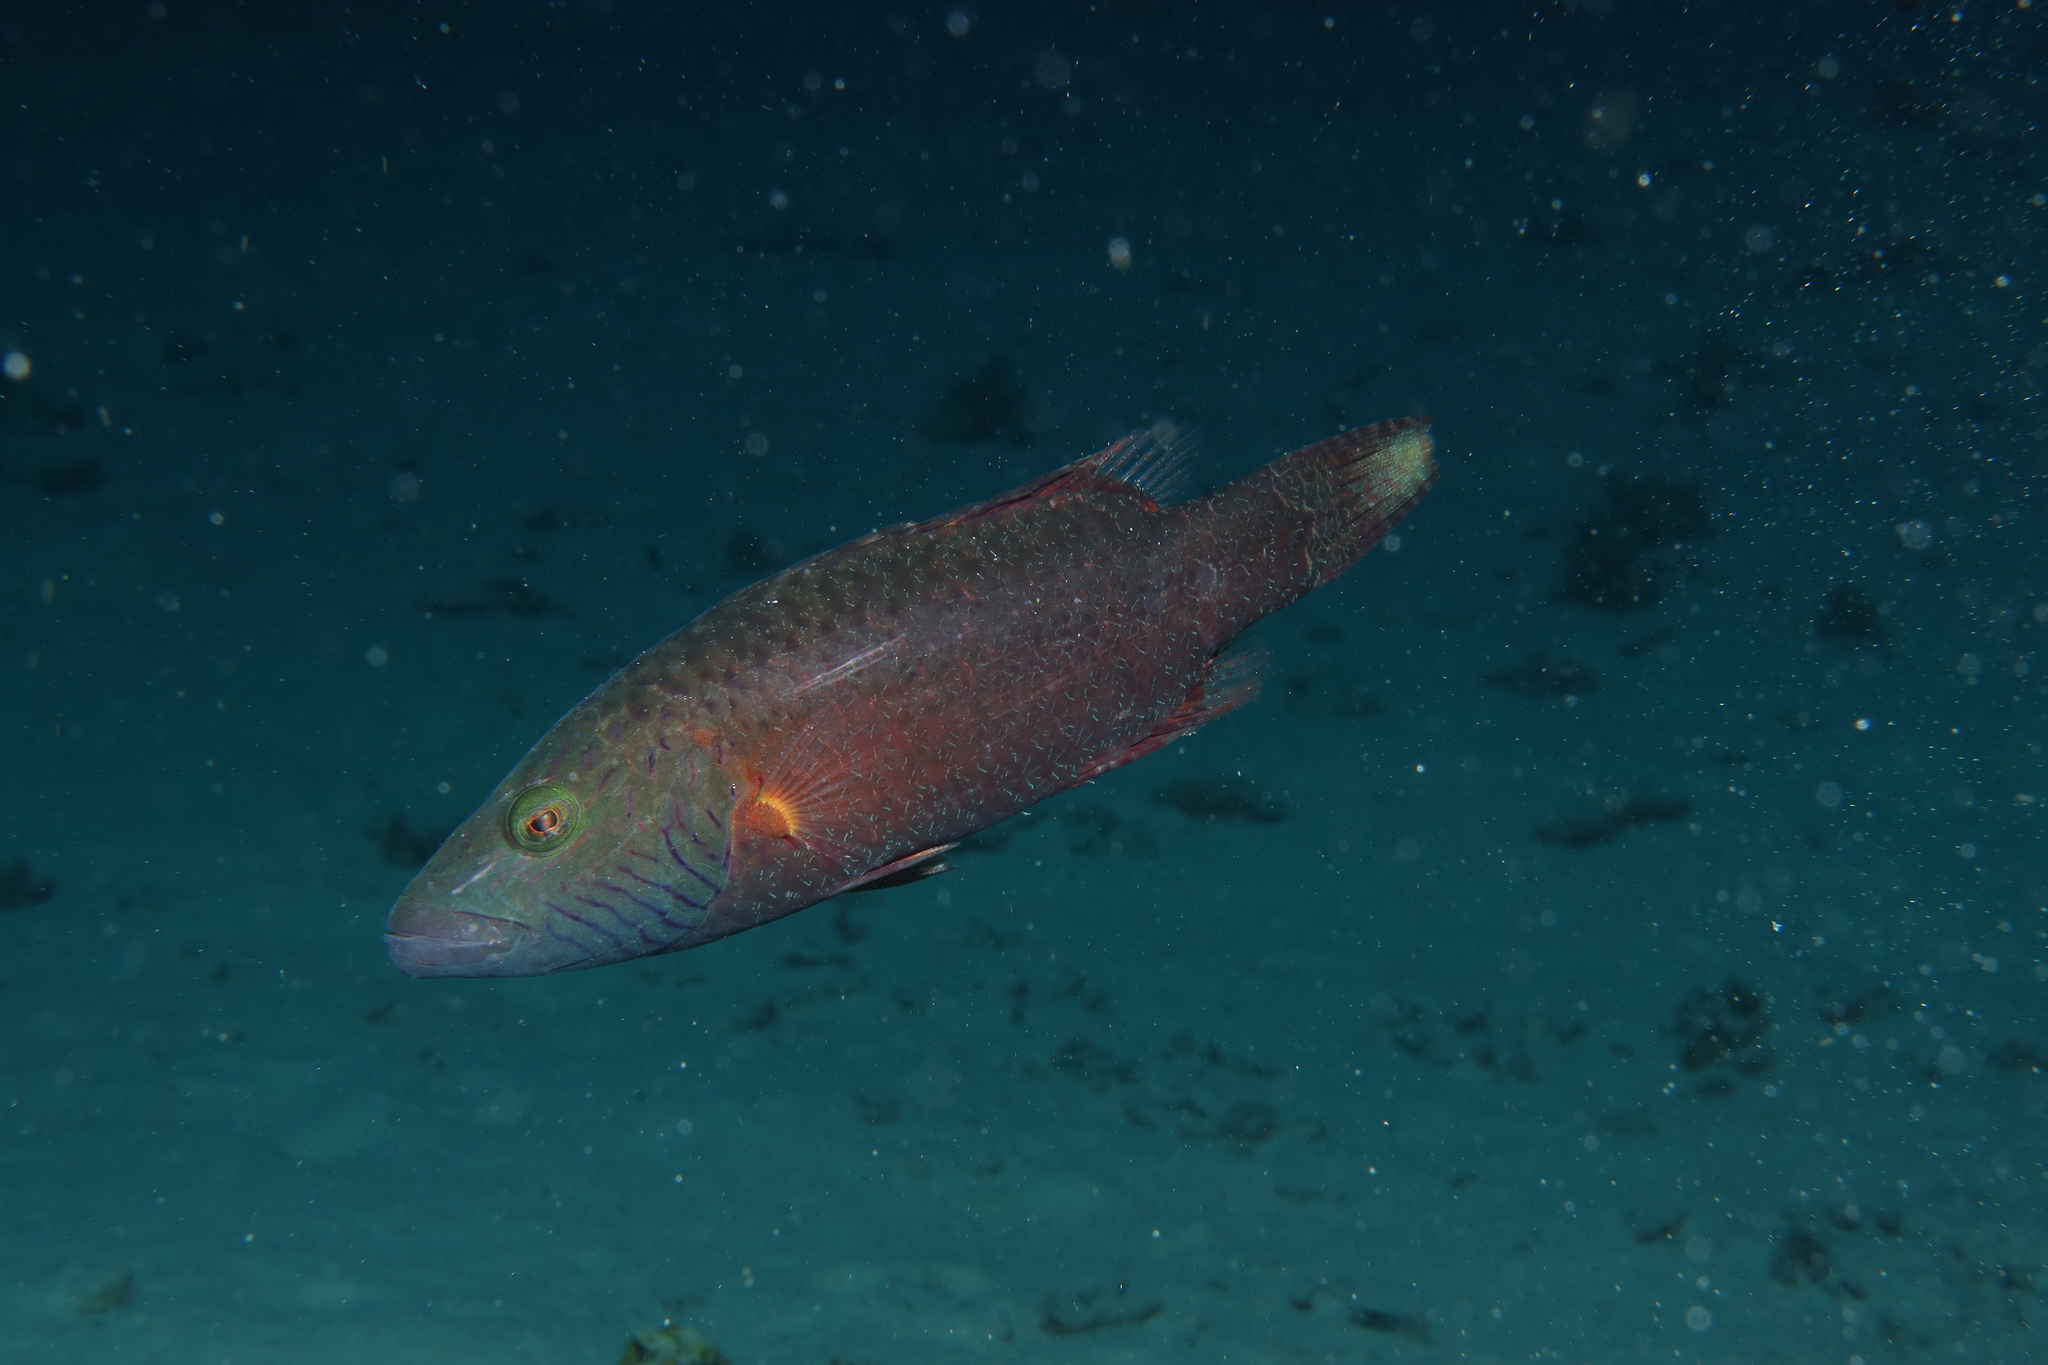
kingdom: Animalia
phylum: Chordata
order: Perciformes
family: Labridae
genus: Oxycheilinus
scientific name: Oxycheilinus digramma
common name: Bandcheek wrasse
